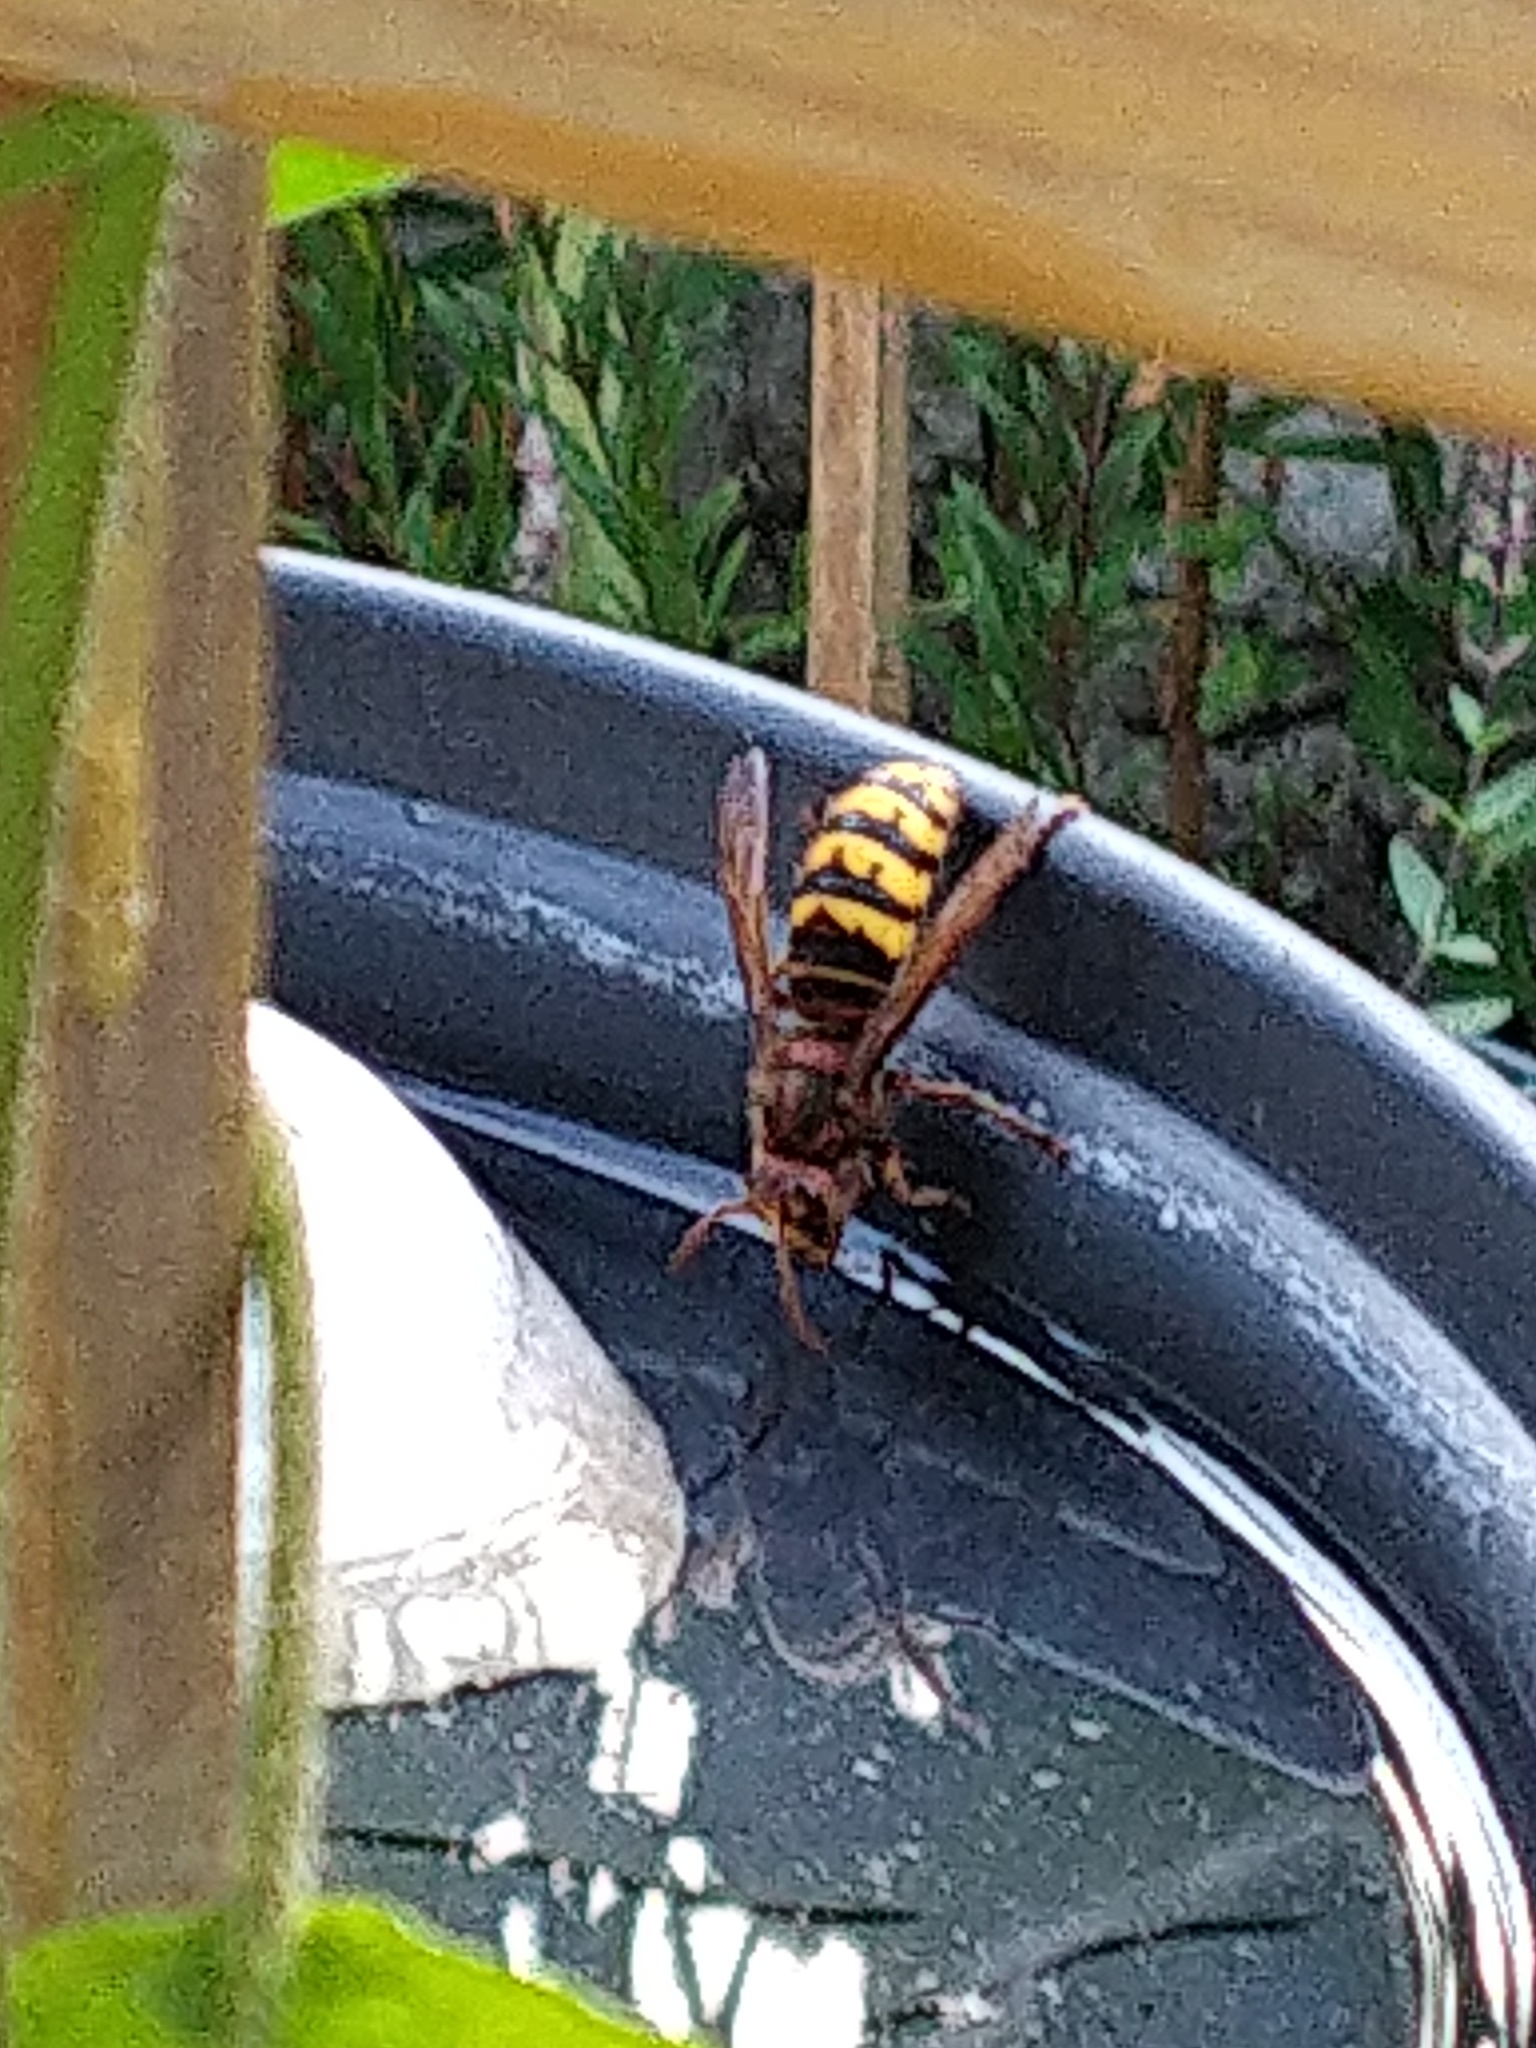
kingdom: Animalia
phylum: Arthropoda
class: Insecta
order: Hymenoptera
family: Vespidae
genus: Vespa
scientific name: Vespa crabro
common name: Hornet
